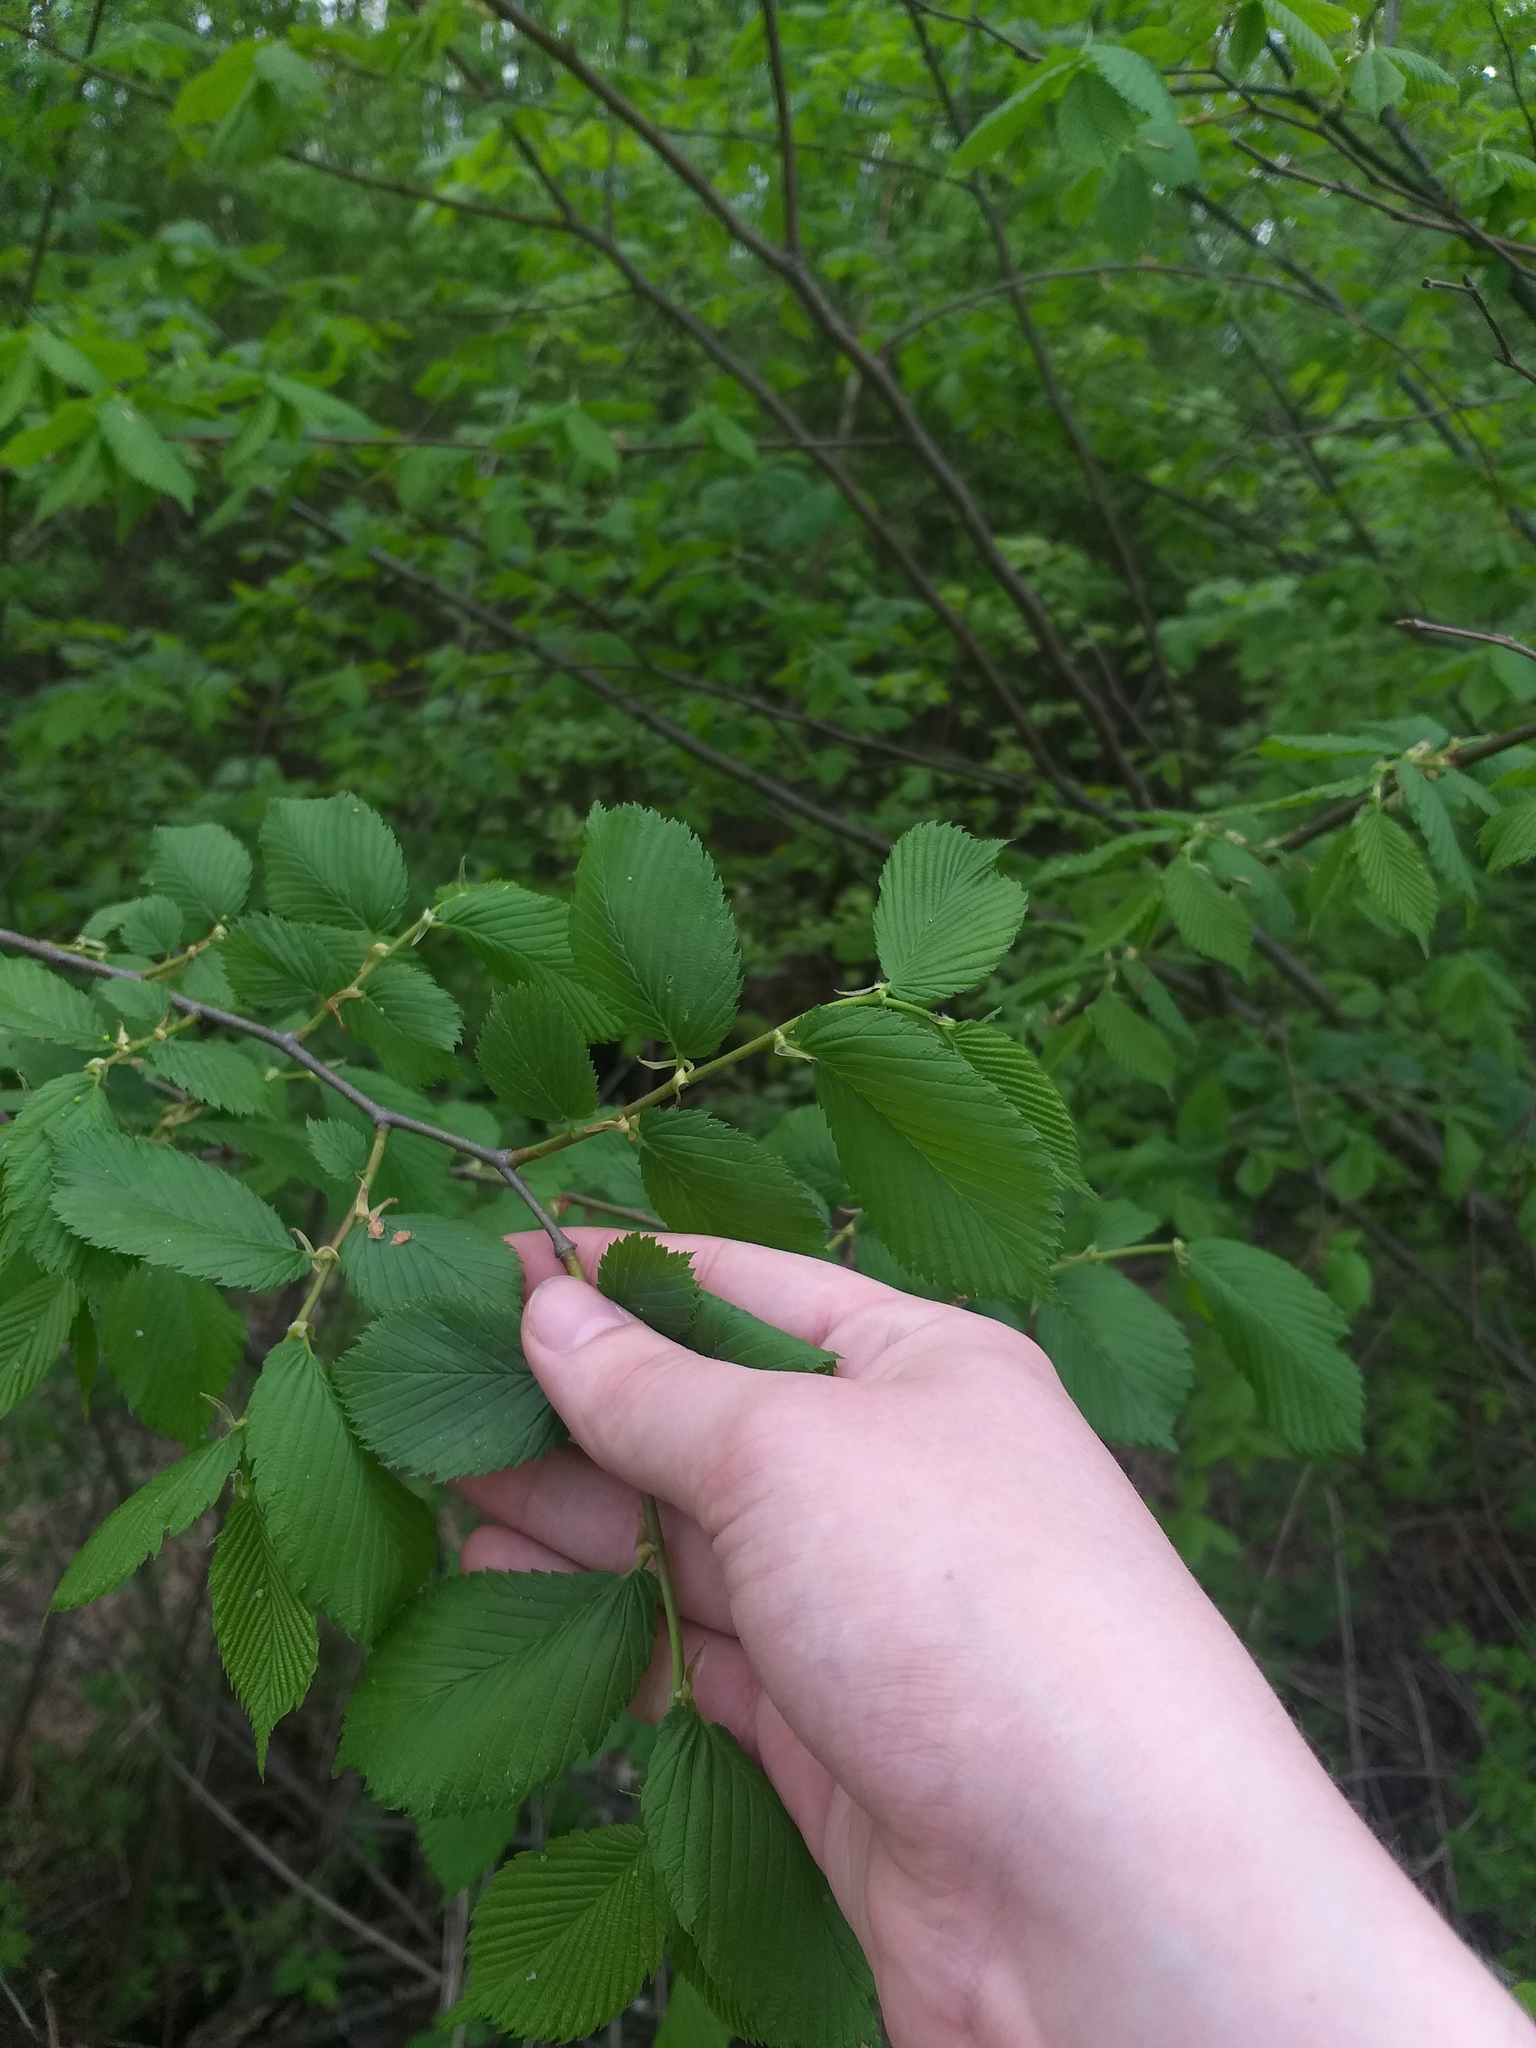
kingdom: Plantae
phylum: Tracheophyta
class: Magnoliopsida
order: Rosales
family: Ulmaceae
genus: Ulmus
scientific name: Ulmus laevis
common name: European white-elm
